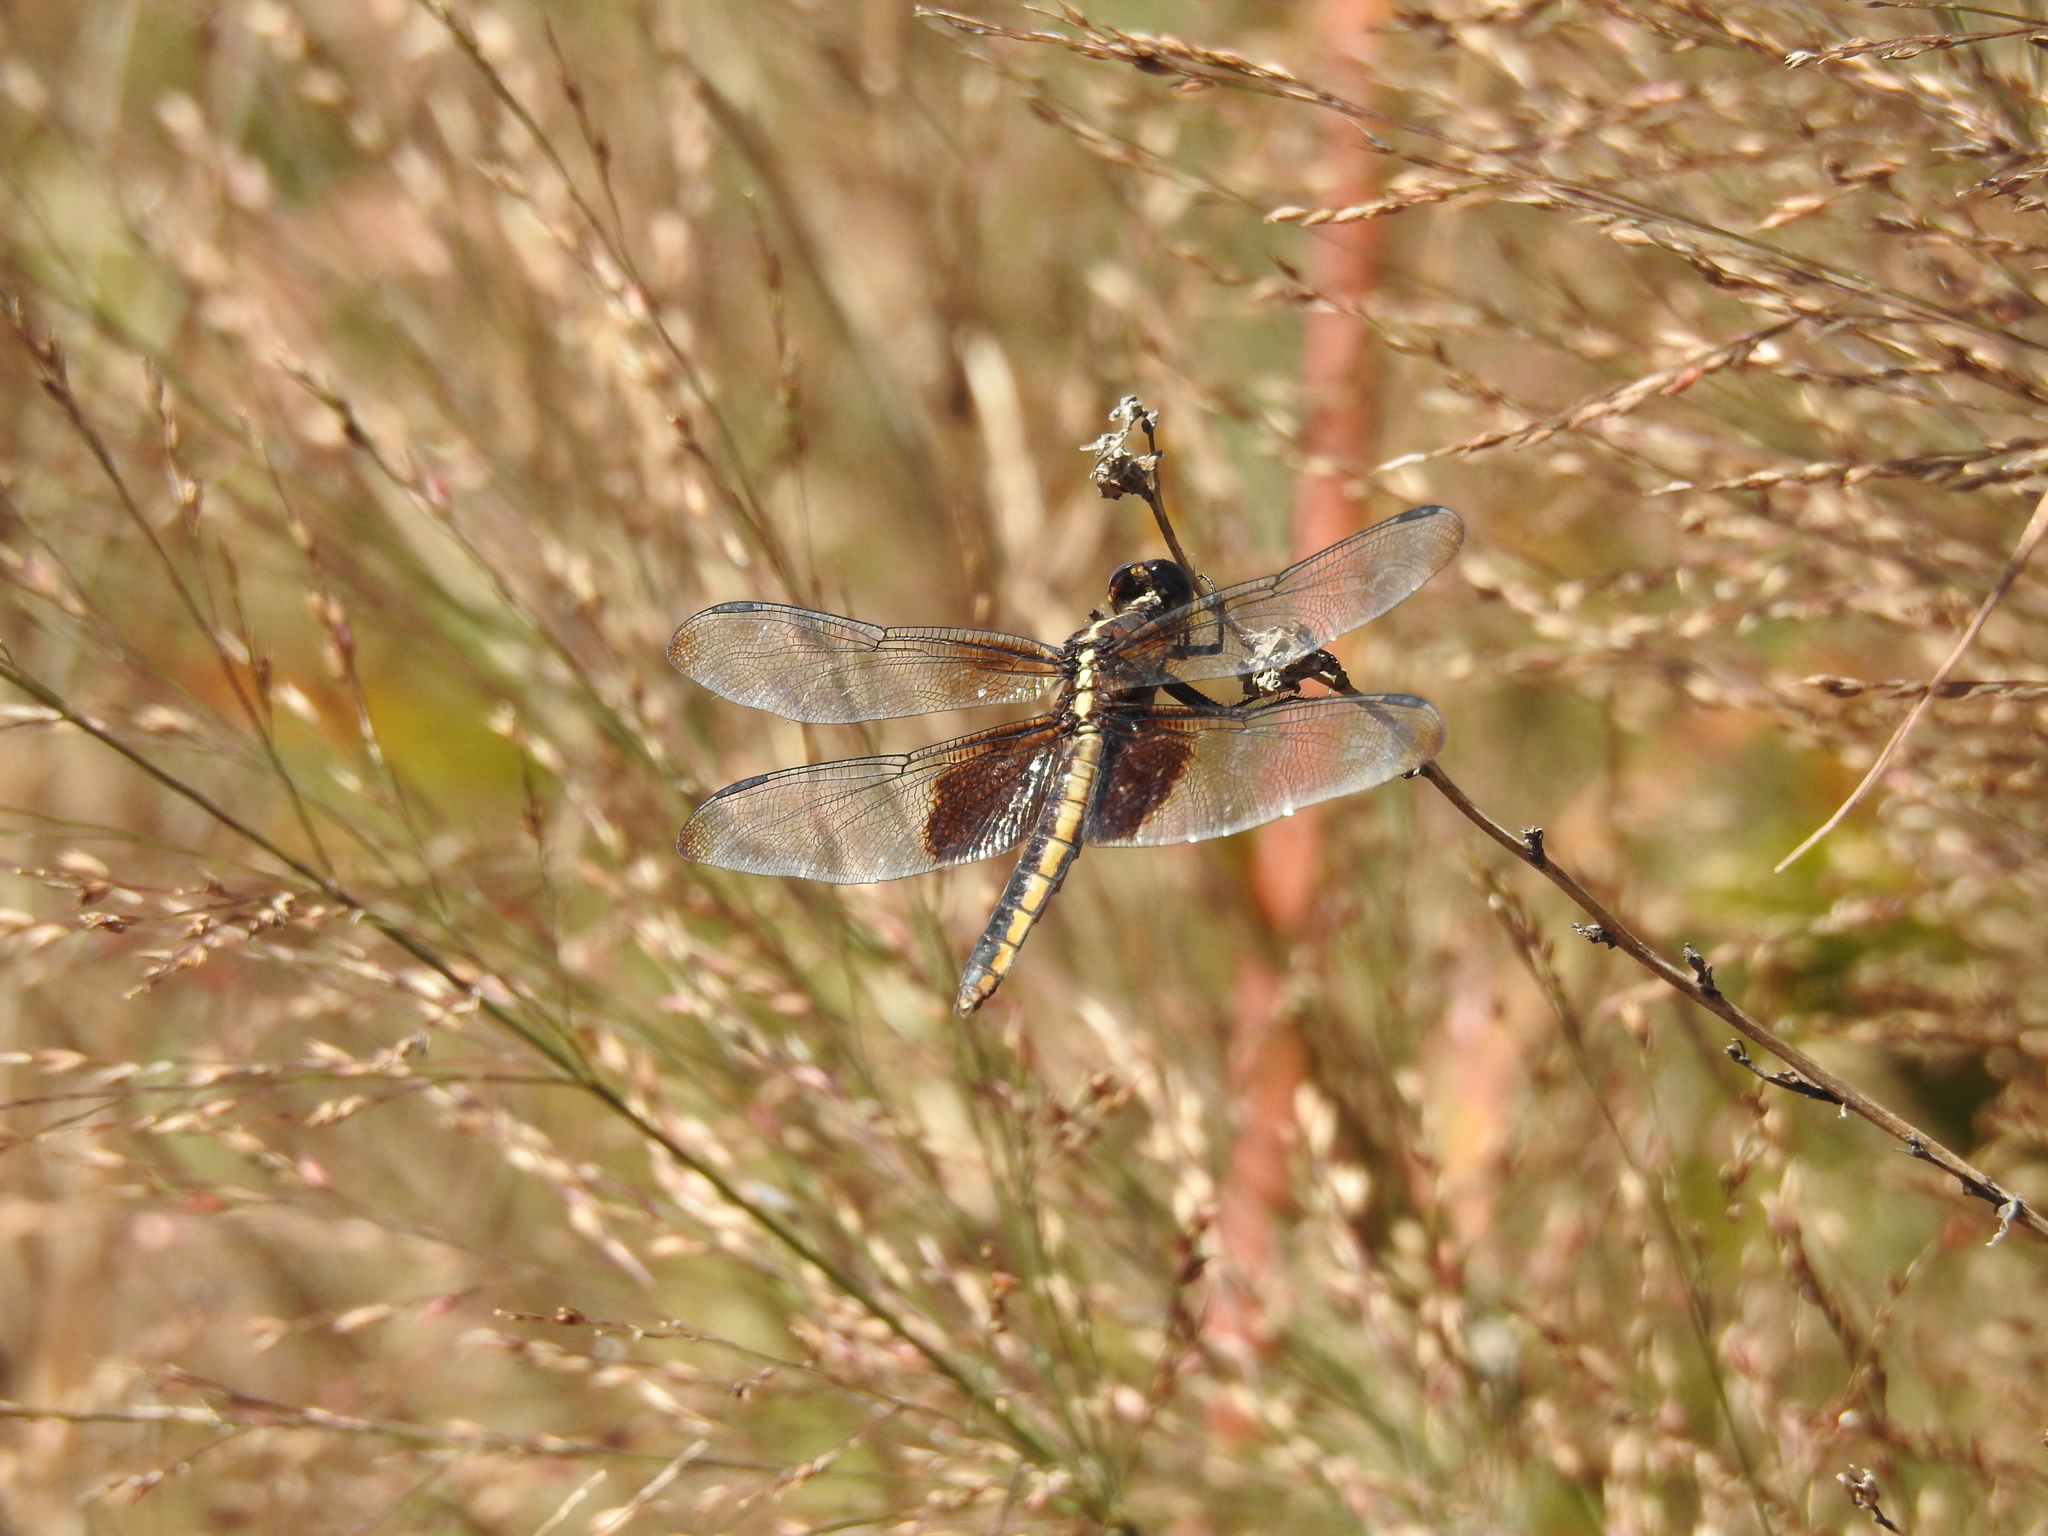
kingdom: Animalia
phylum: Arthropoda
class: Insecta
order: Odonata
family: Libellulidae
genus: Libellula
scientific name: Libellula luctuosa
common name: Widow skimmer
